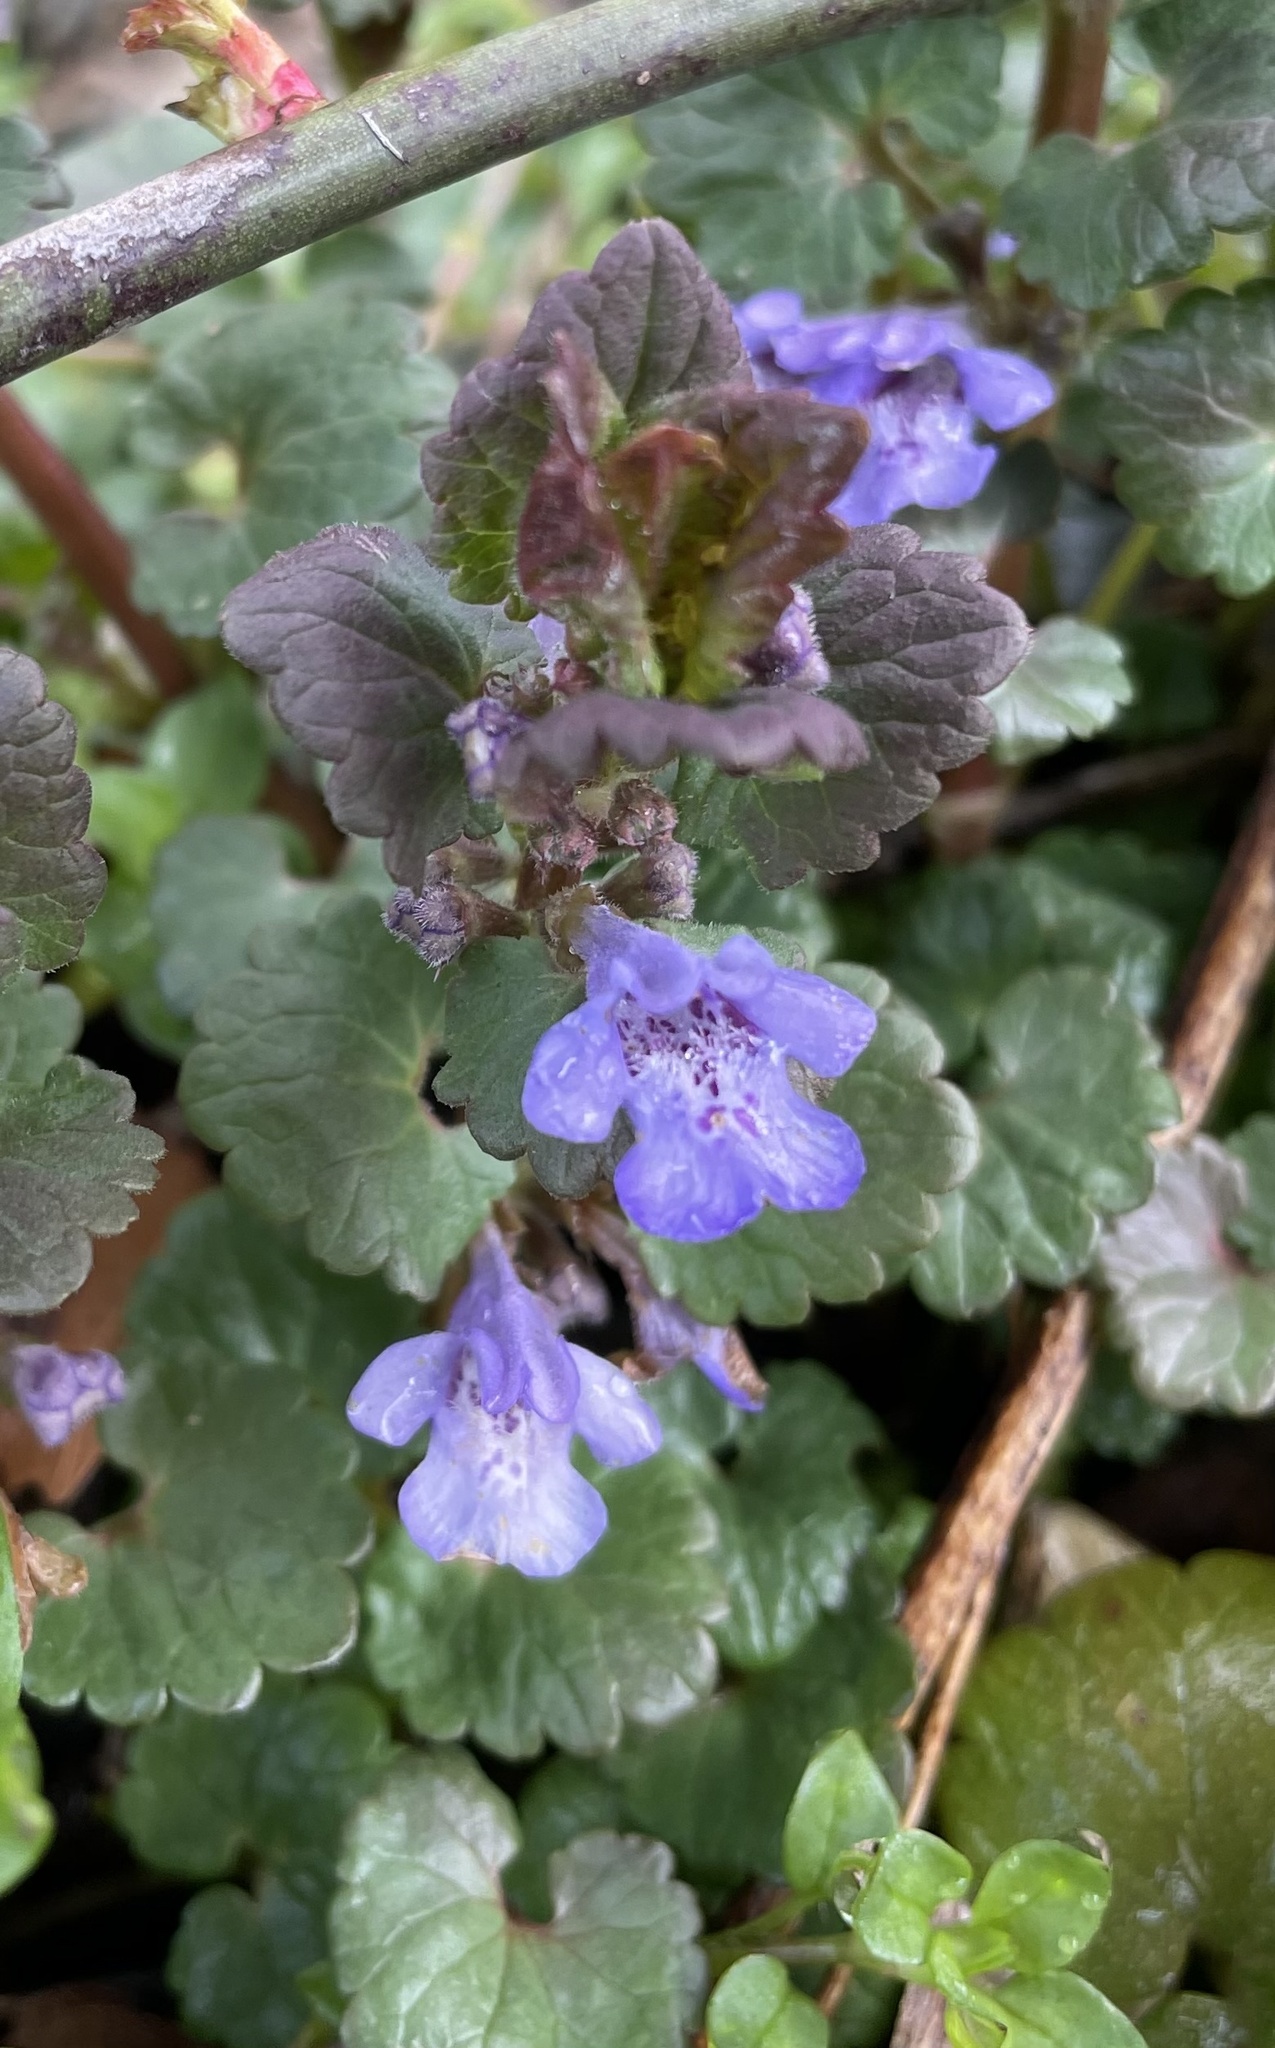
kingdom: Plantae
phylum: Tracheophyta
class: Magnoliopsida
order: Lamiales
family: Lamiaceae
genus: Glechoma
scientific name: Glechoma hederacea
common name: Ground ivy
